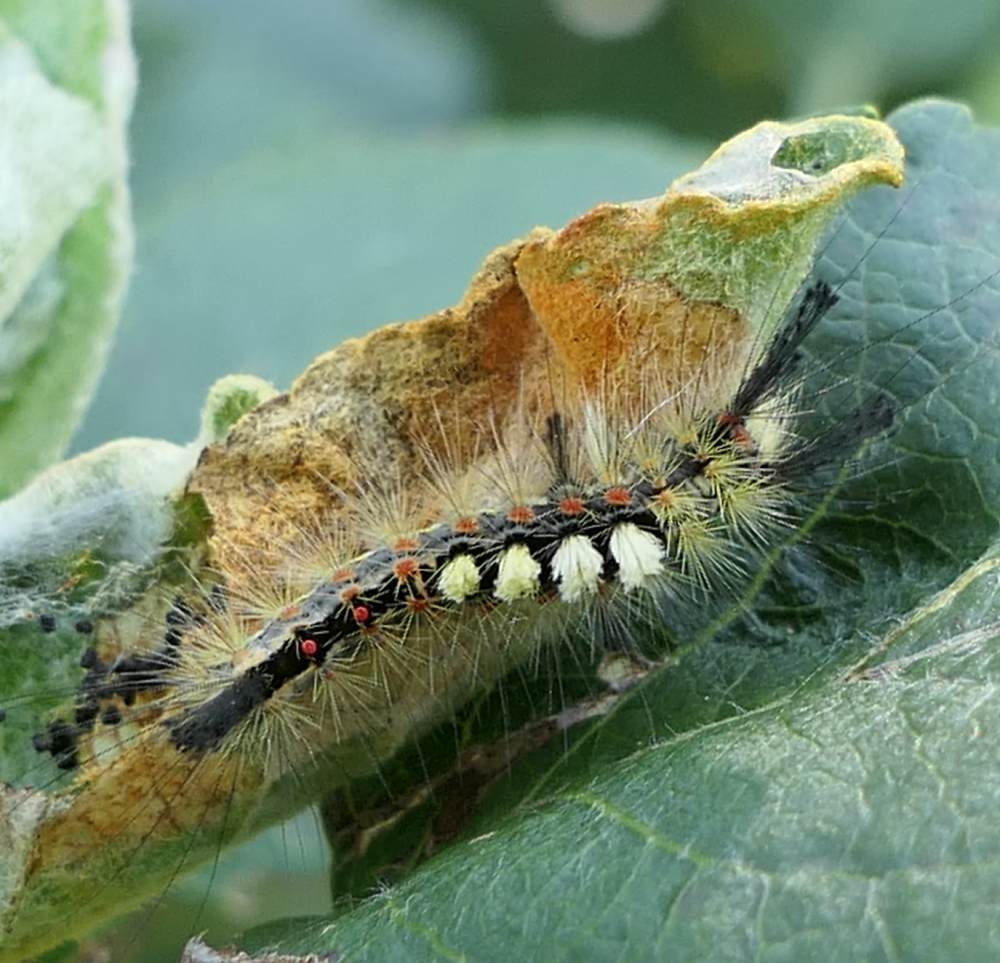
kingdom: Animalia
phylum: Arthropoda
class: Insecta
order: Lepidoptera
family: Erebidae
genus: Orgyia
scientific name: Orgyia antiqua
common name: Vapourer
